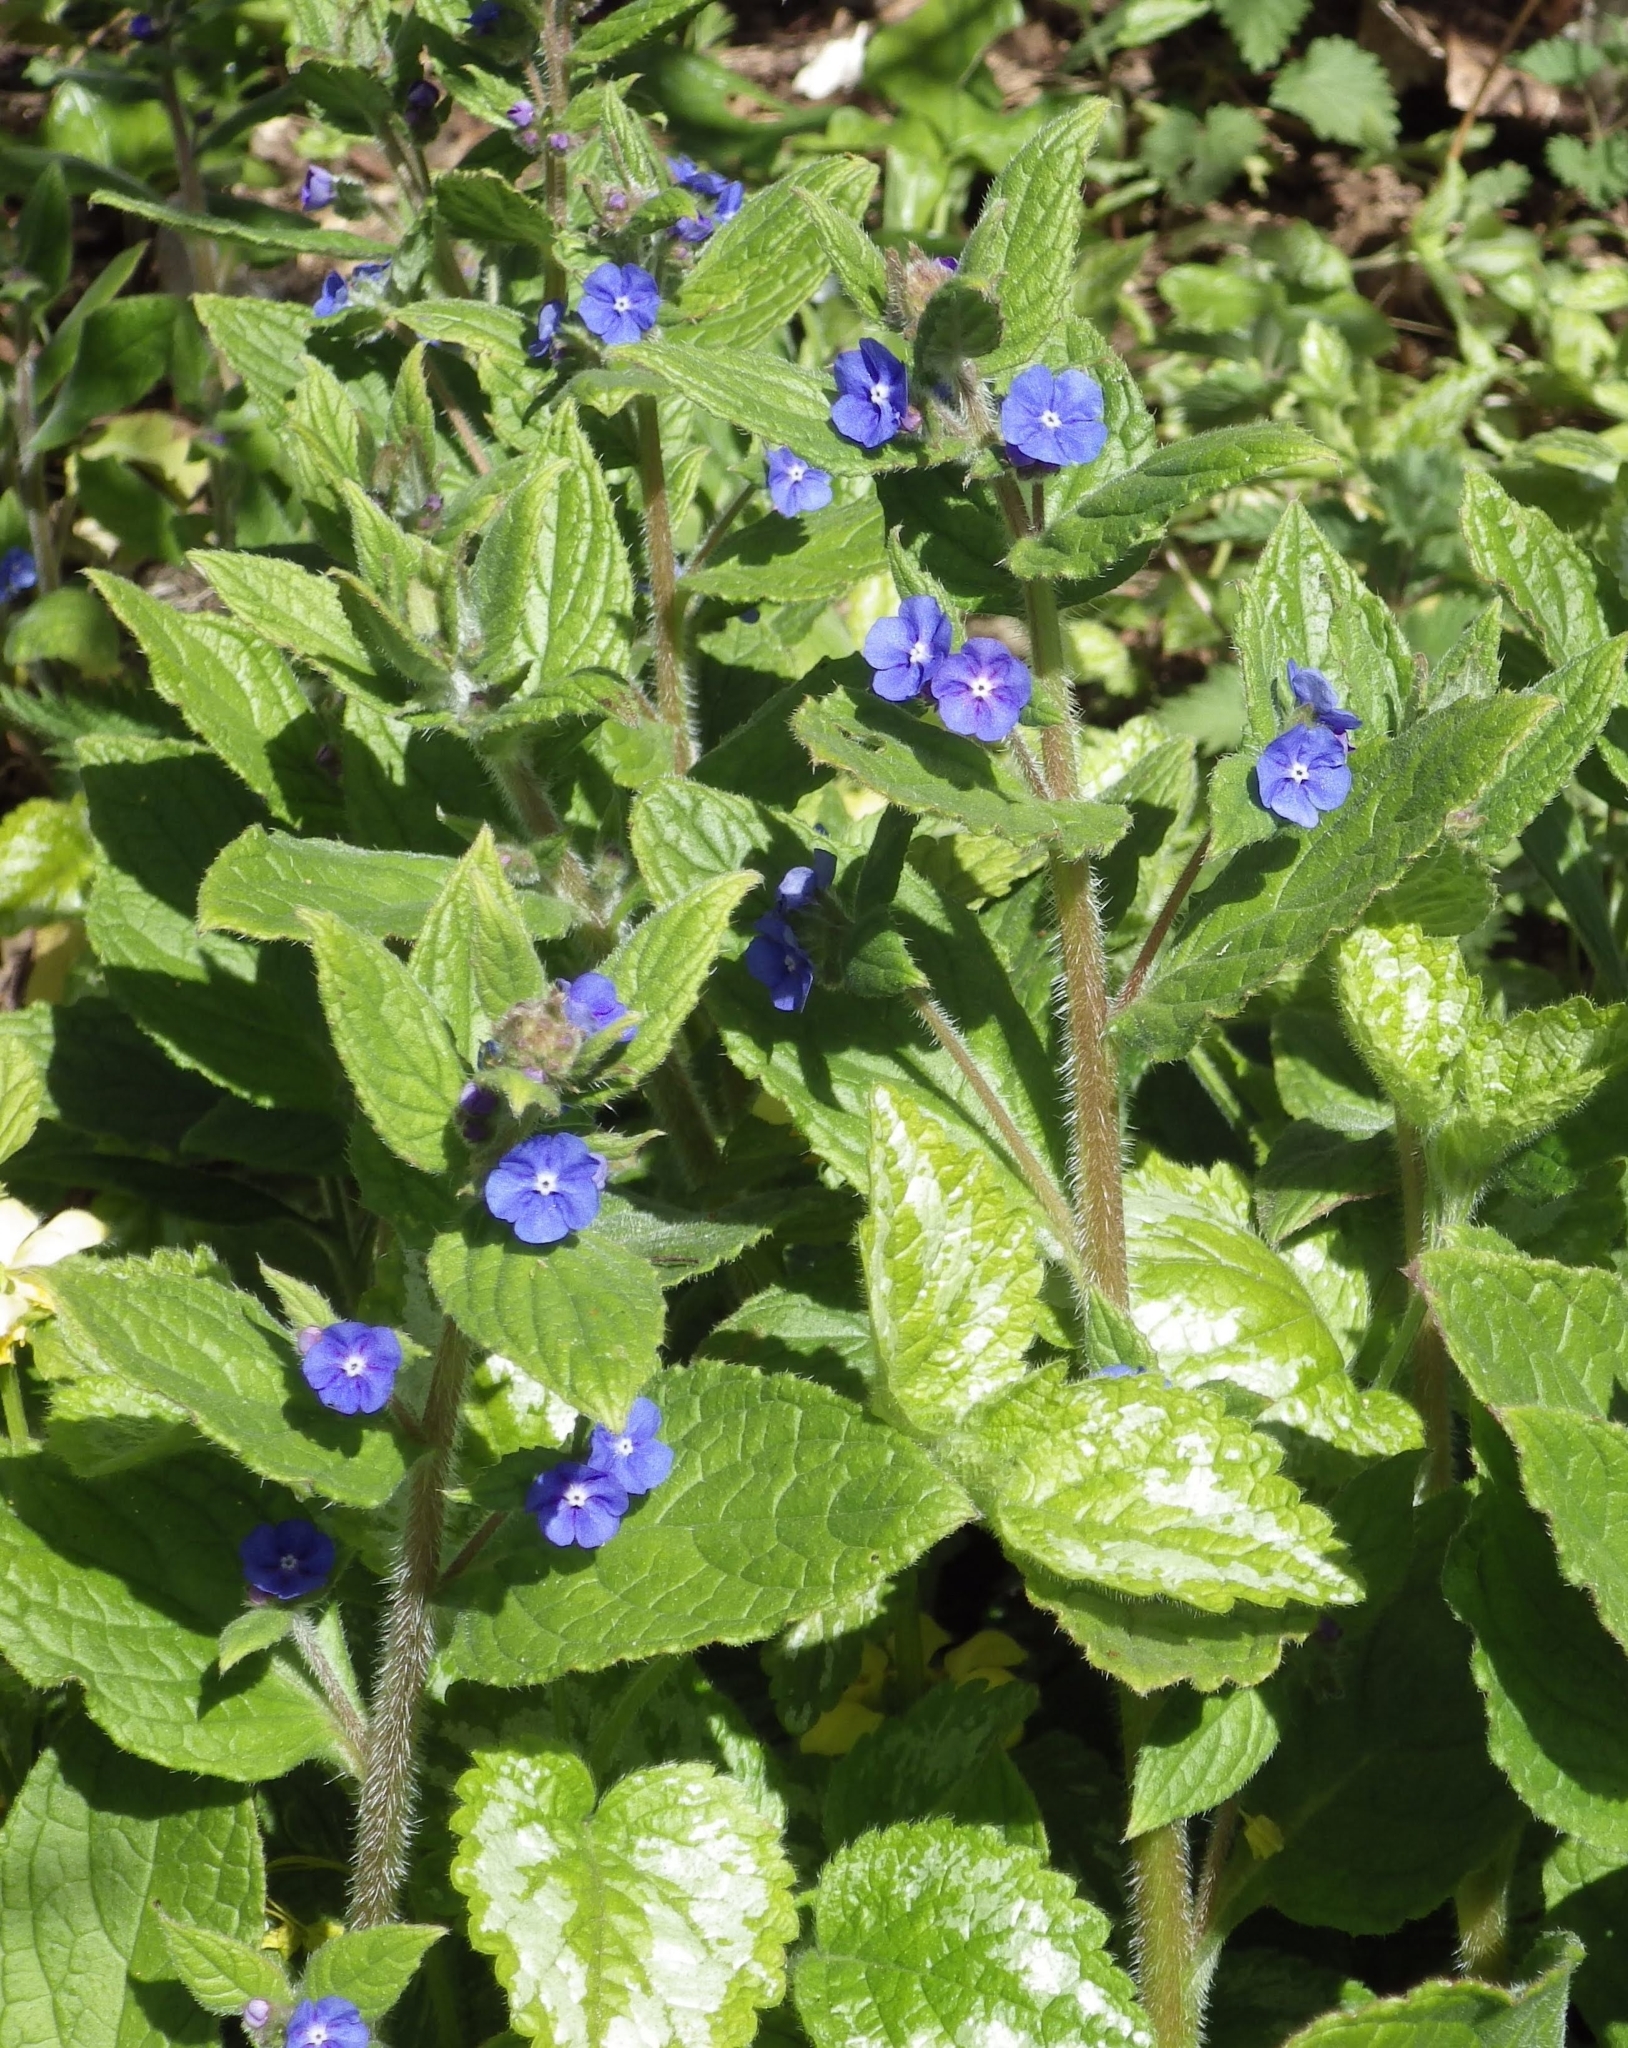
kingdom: Plantae
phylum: Tracheophyta
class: Magnoliopsida
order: Boraginales
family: Boraginaceae
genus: Pentaglottis
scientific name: Pentaglottis sempervirens
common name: Green alkanet
